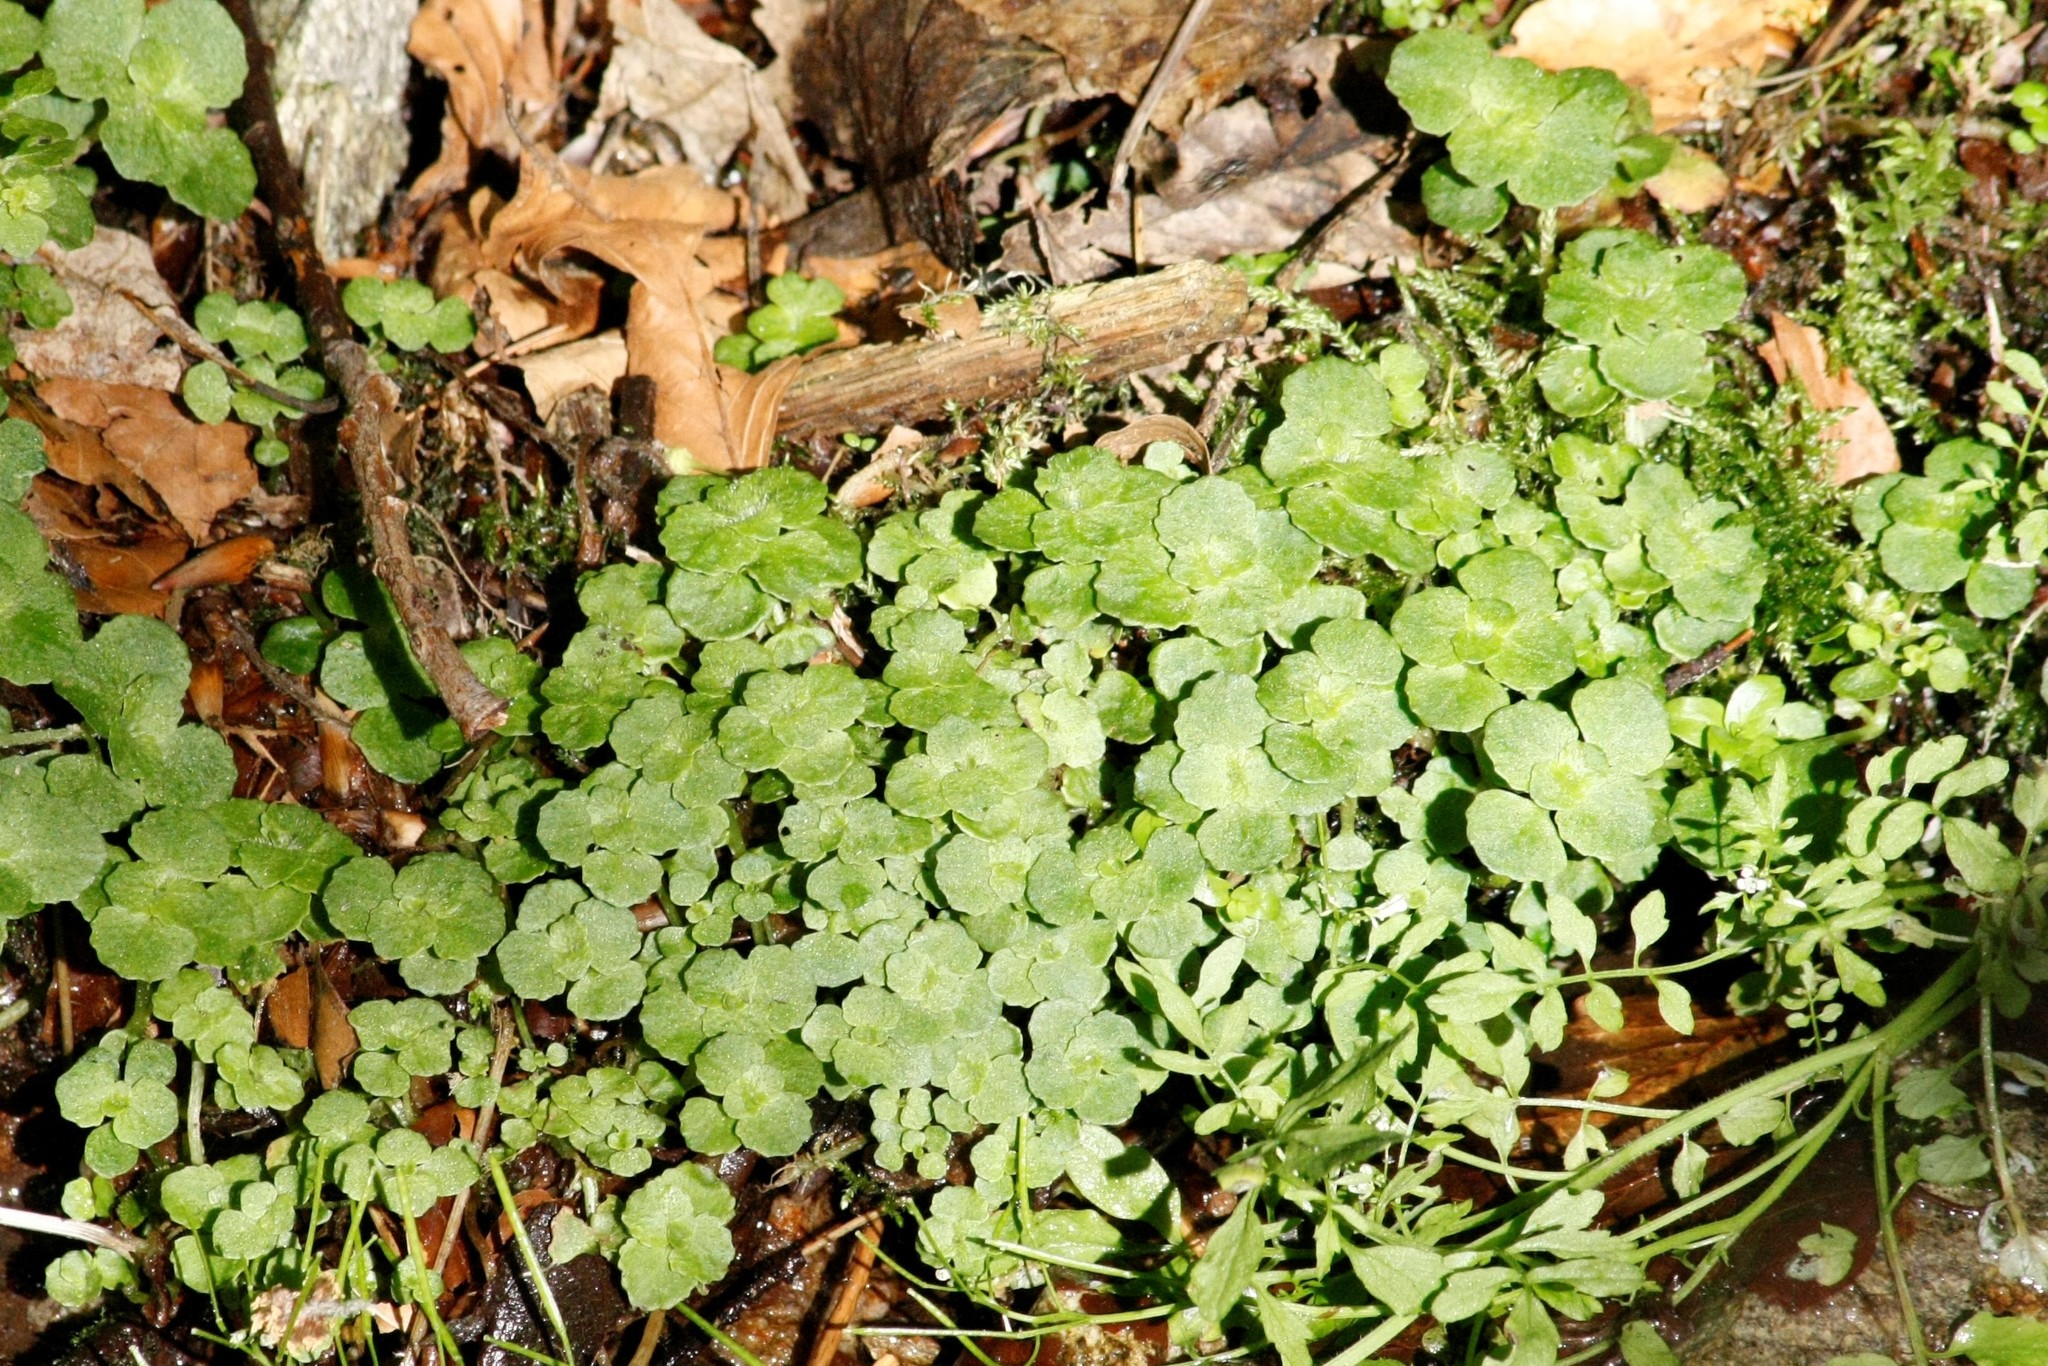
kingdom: Plantae
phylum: Tracheophyta
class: Magnoliopsida
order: Saxifragales
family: Saxifragaceae
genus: Chrysosplenium
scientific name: Chrysosplenium oppositifolium
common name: Opposite-leaved golden-saxifrage
